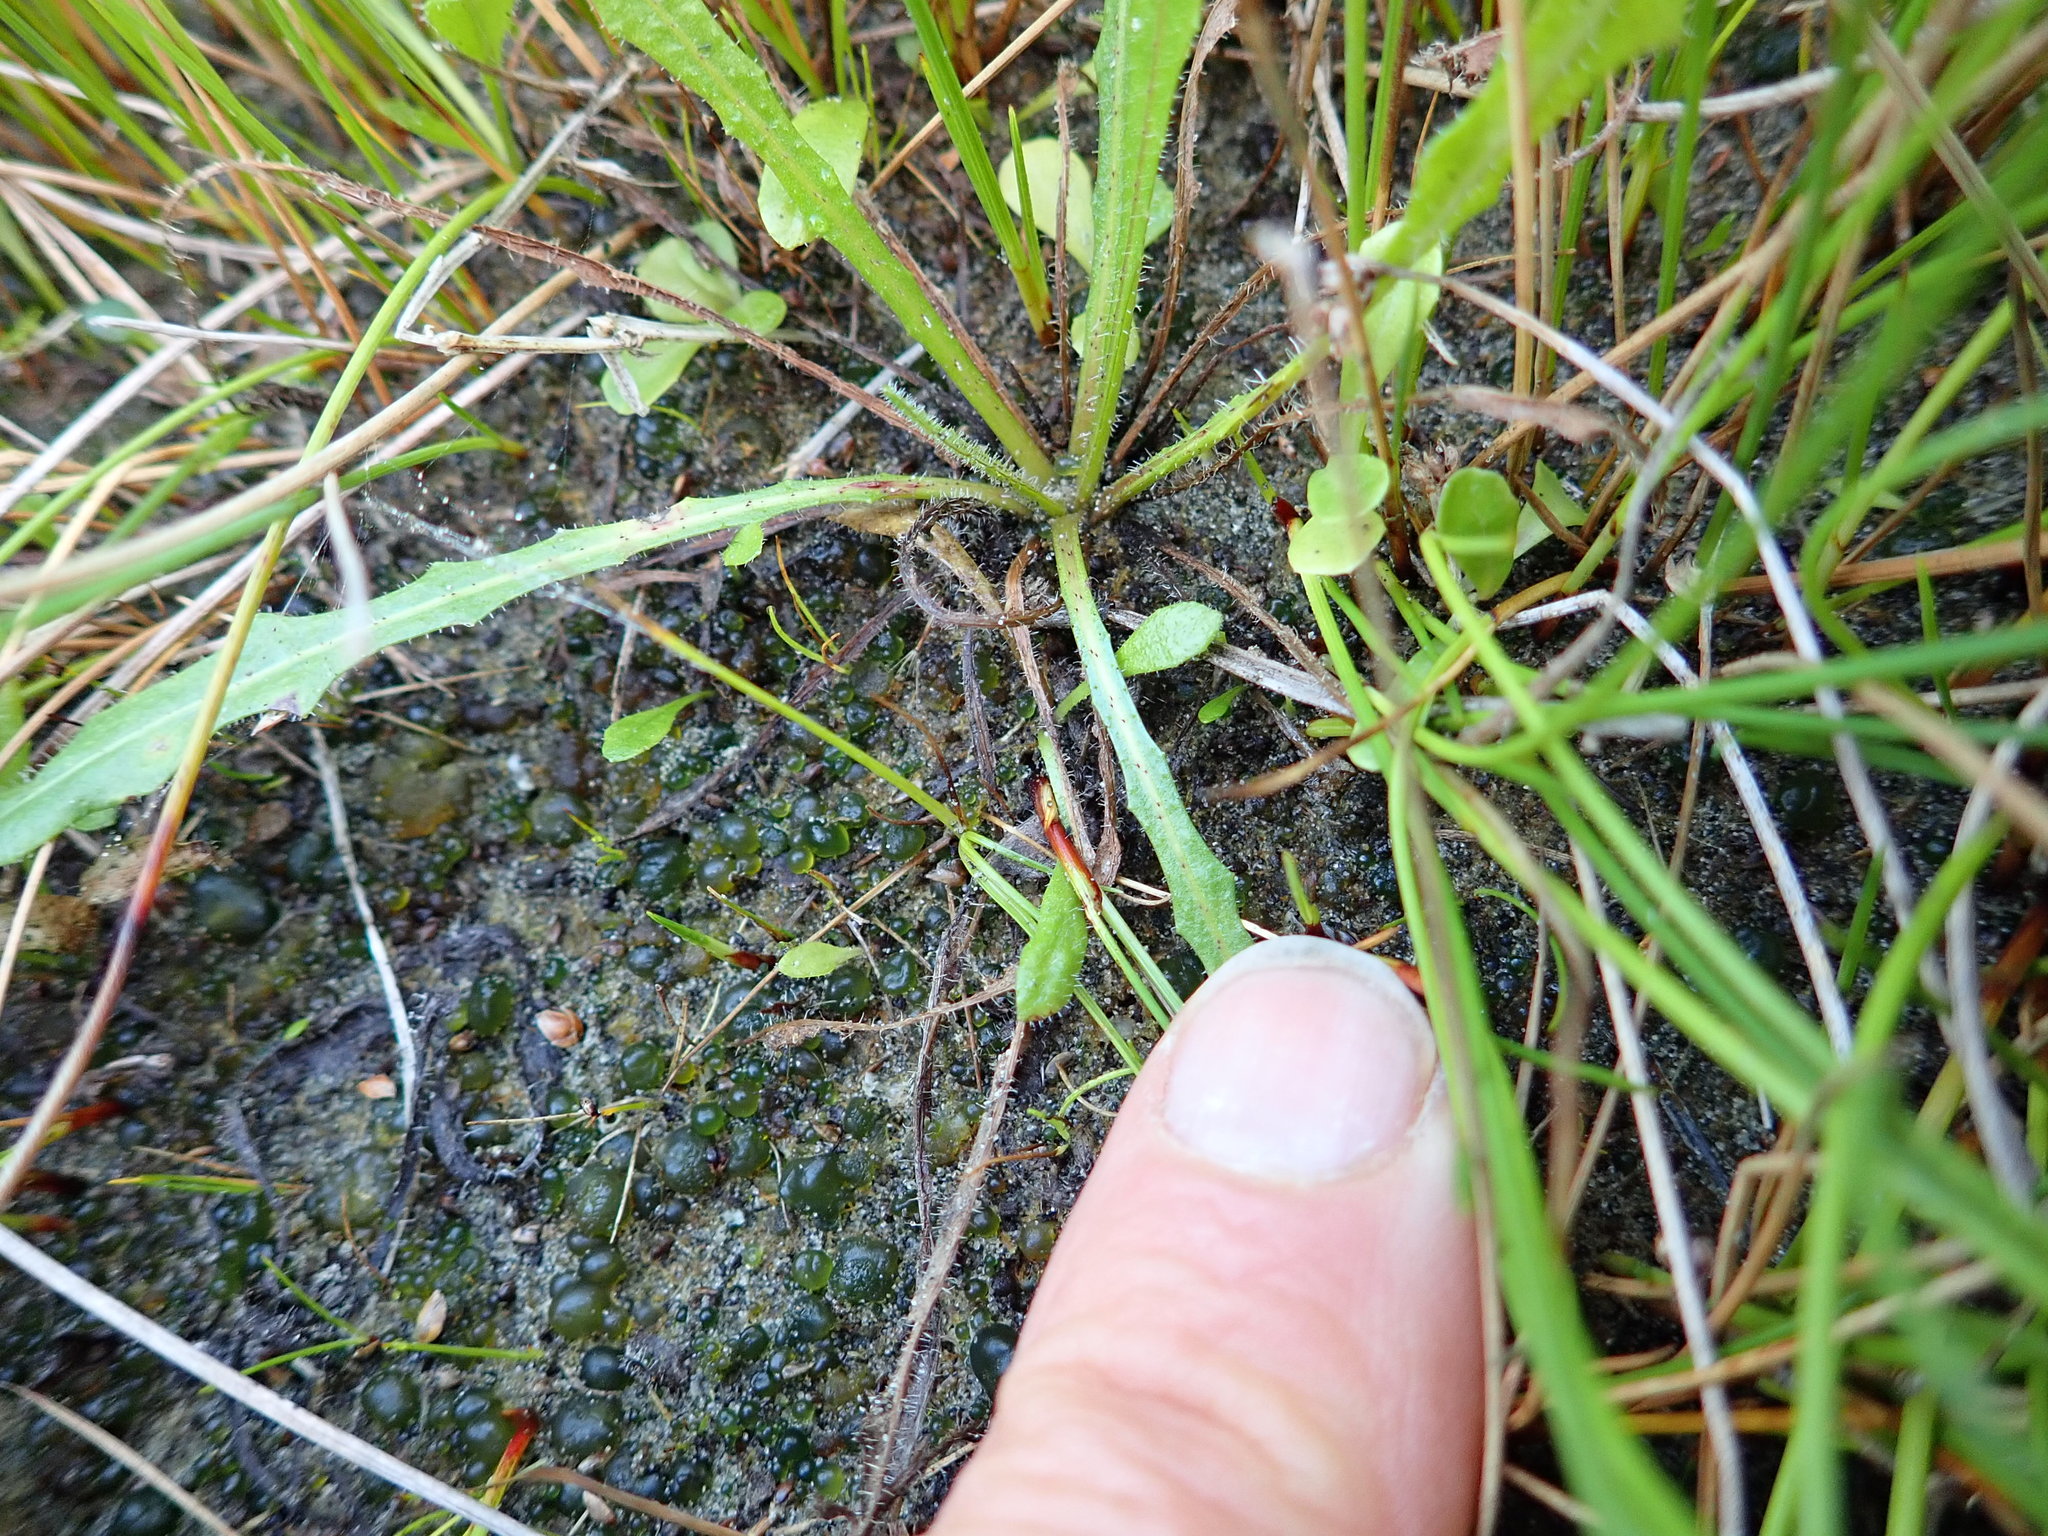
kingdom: Bacteria
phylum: Cyanobacteria
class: Cyanobacteriia
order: Cyanobacteriales
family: Nostocaceae
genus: Nostoc
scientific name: Nostoc commune
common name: Star jelly
